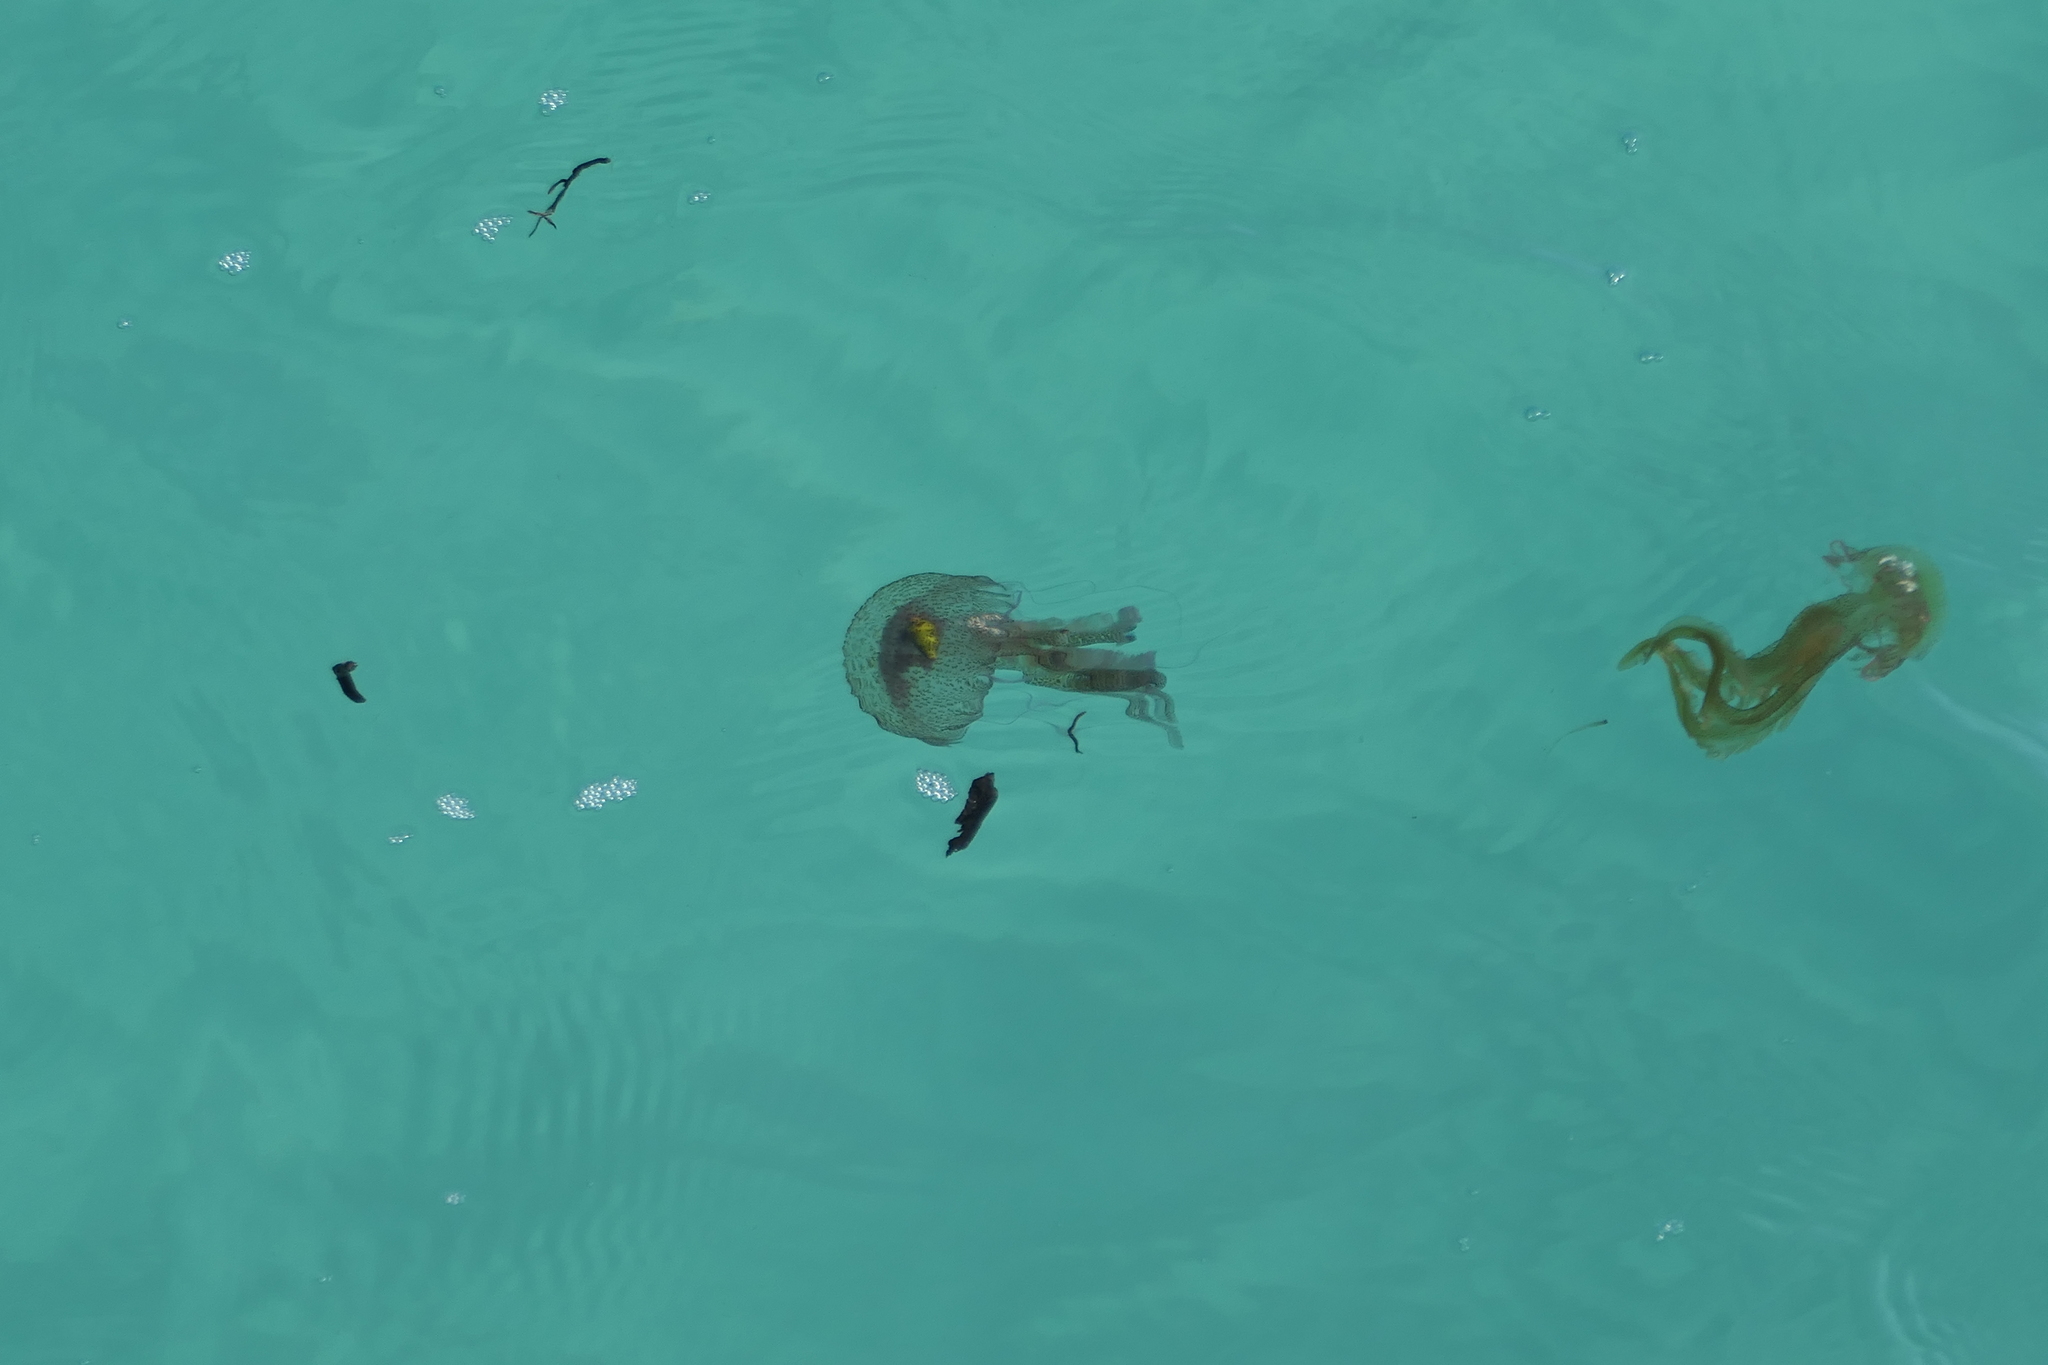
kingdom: Animalia
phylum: Cnidaria
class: Scyphozoa
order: Semaeostomeae
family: Pelagiidae
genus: Pelagia
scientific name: Pelagia noctiluca
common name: Mauve stinger
